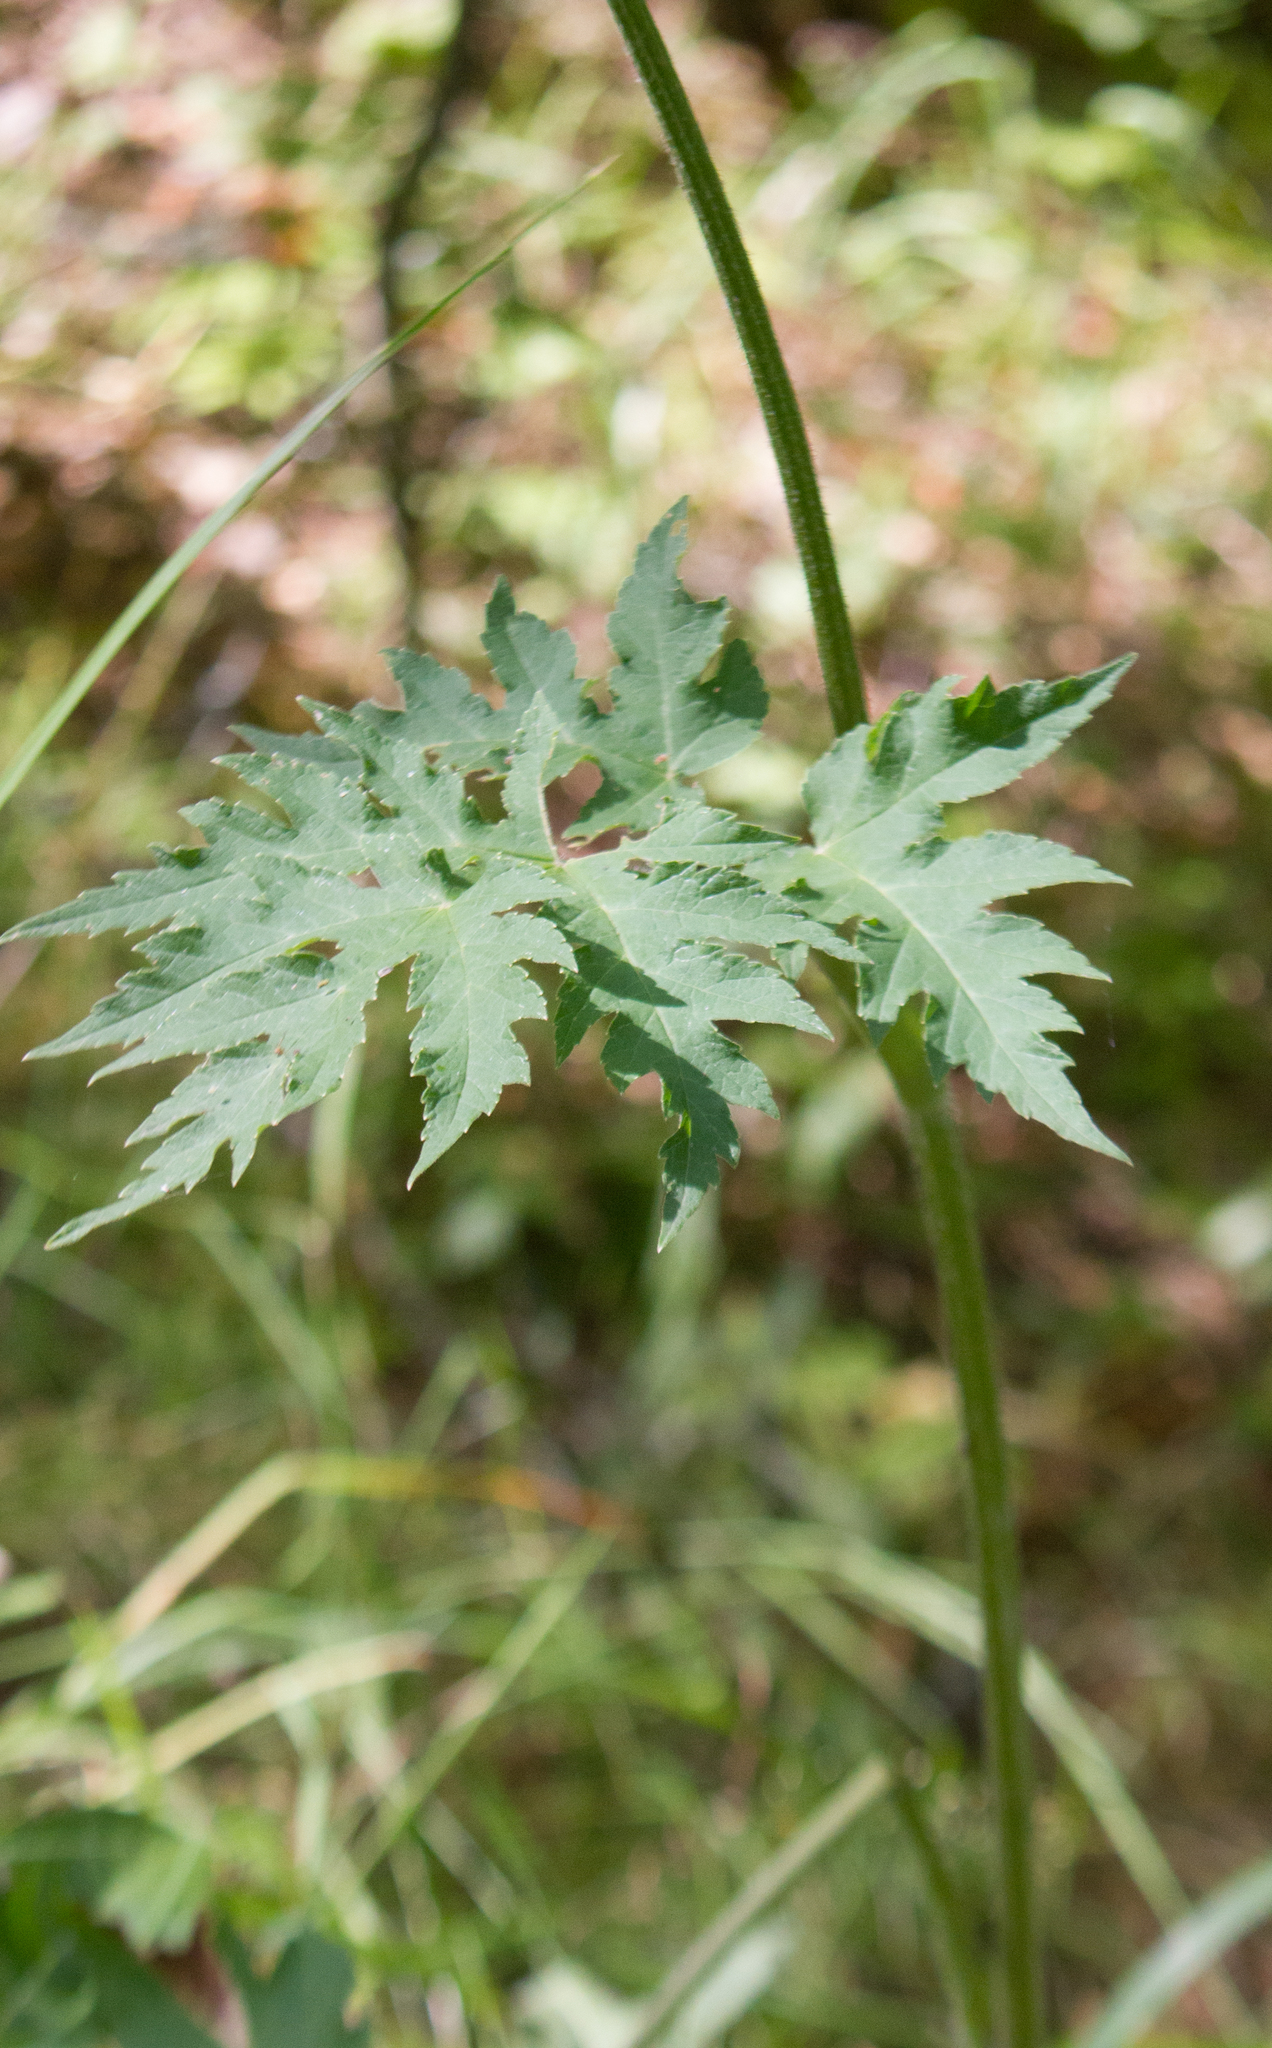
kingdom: Plantae
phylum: Tracheophyta
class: Magnoliopsida
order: Apiales
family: Apiaceae
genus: Heracleum
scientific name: Heracleum sphondylium
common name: Hogweed
